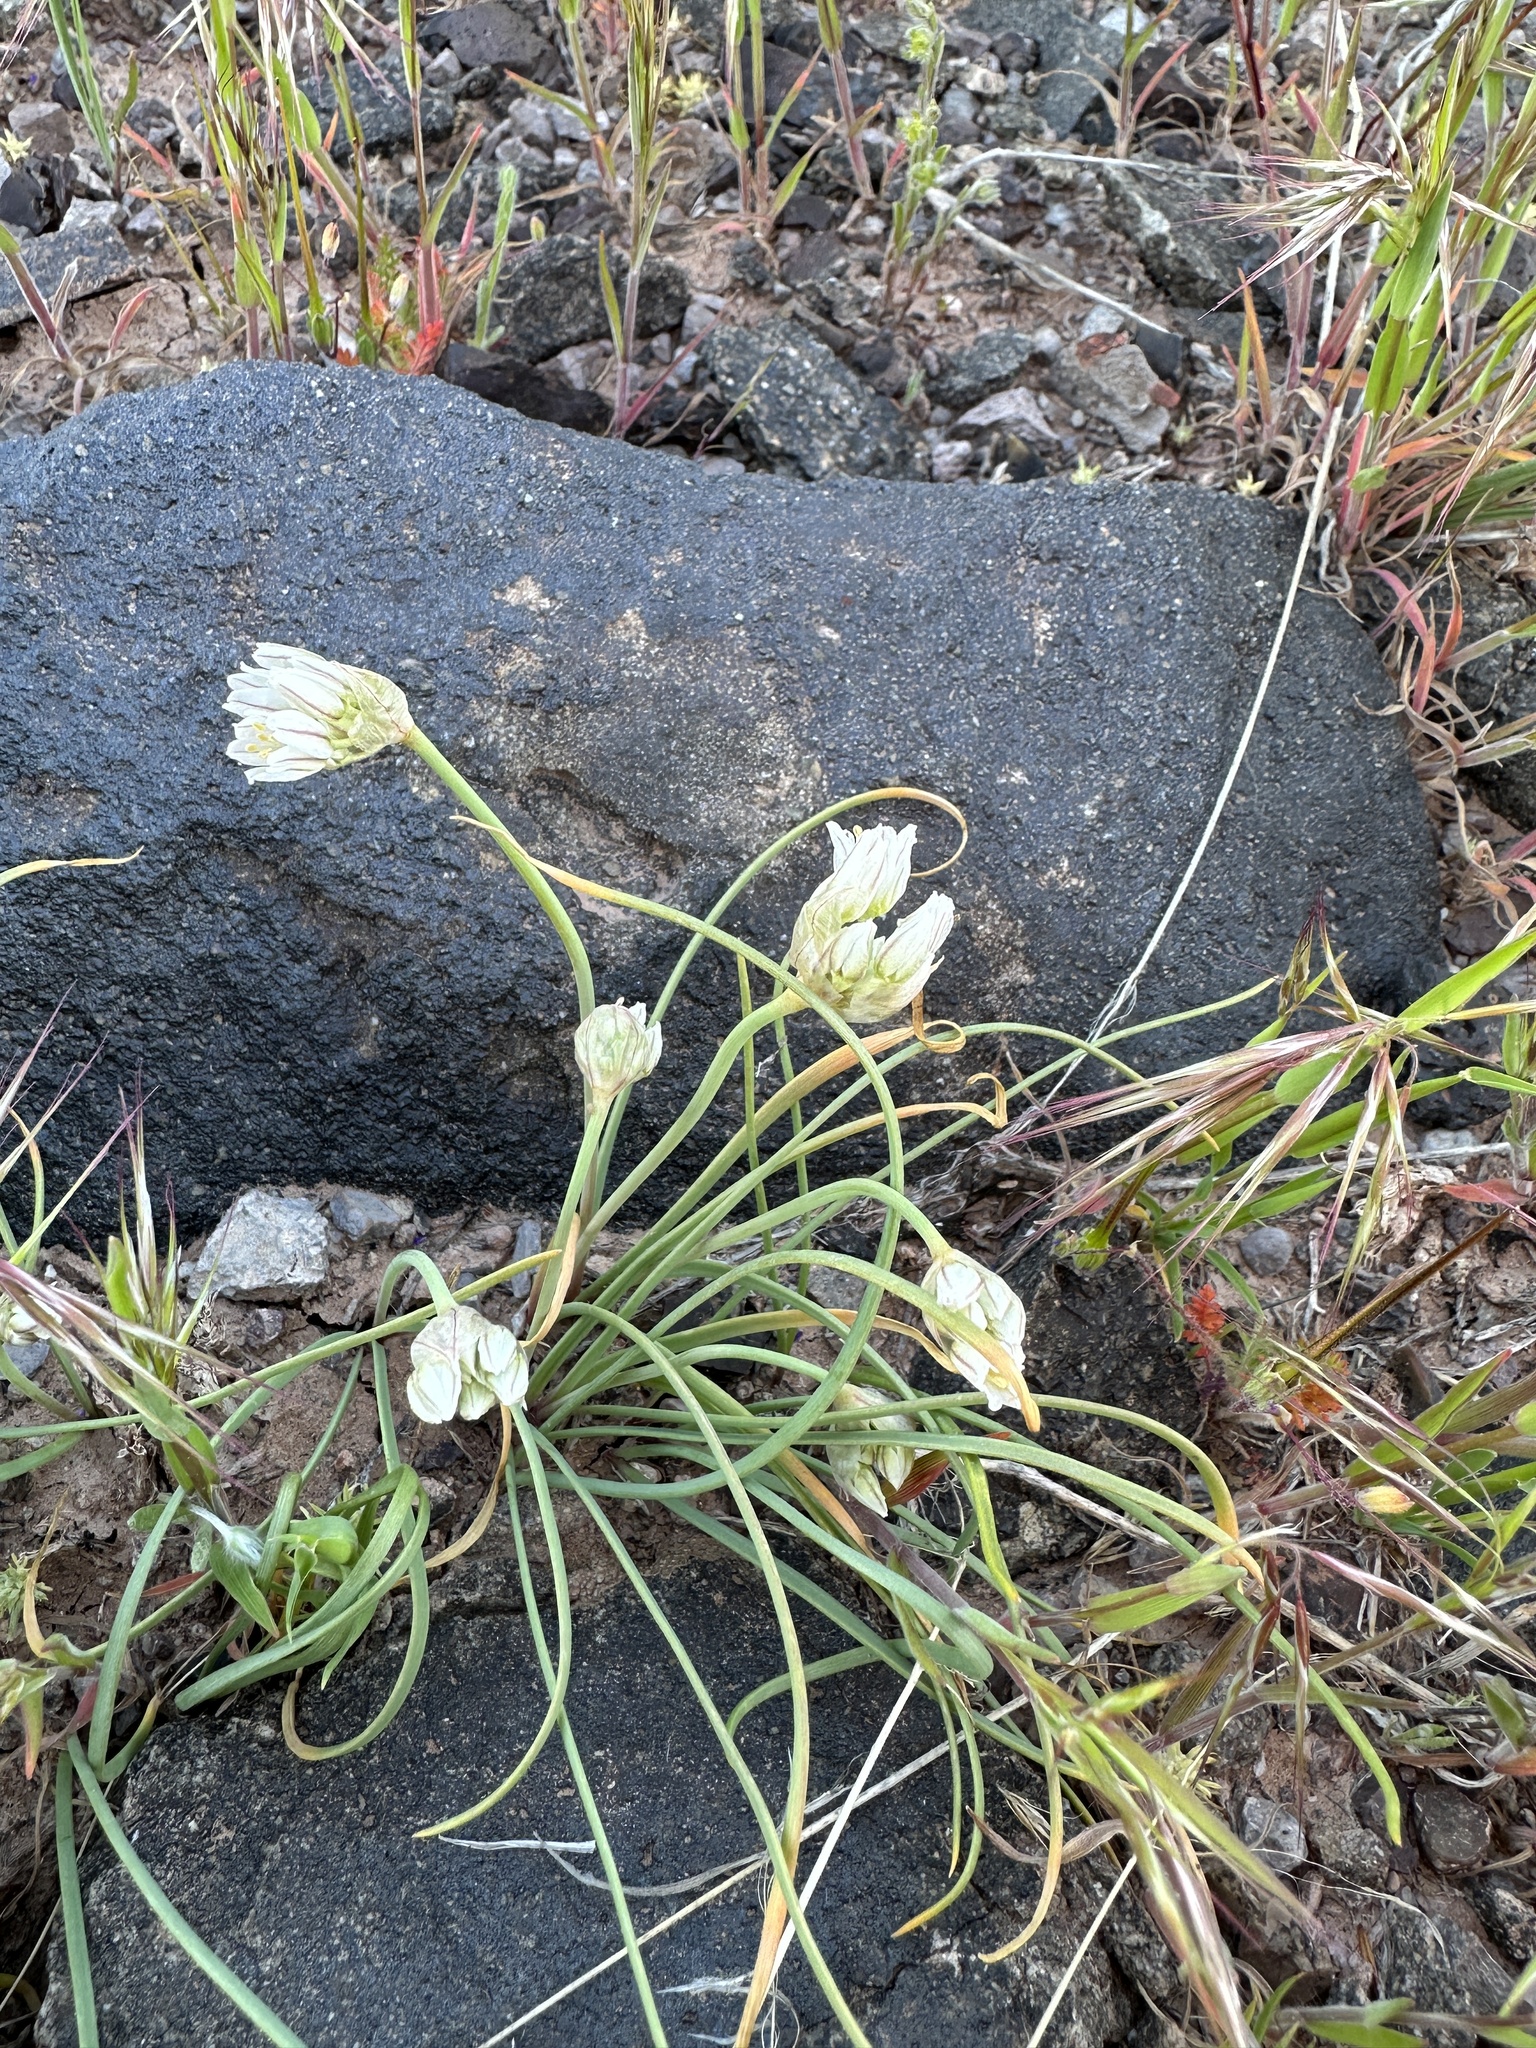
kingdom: Plantae
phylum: Tracheophyta
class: Liliopsida
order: Asparagales
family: Amaryllidaceae
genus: Allium
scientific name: Allium textile
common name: Prairie onion
